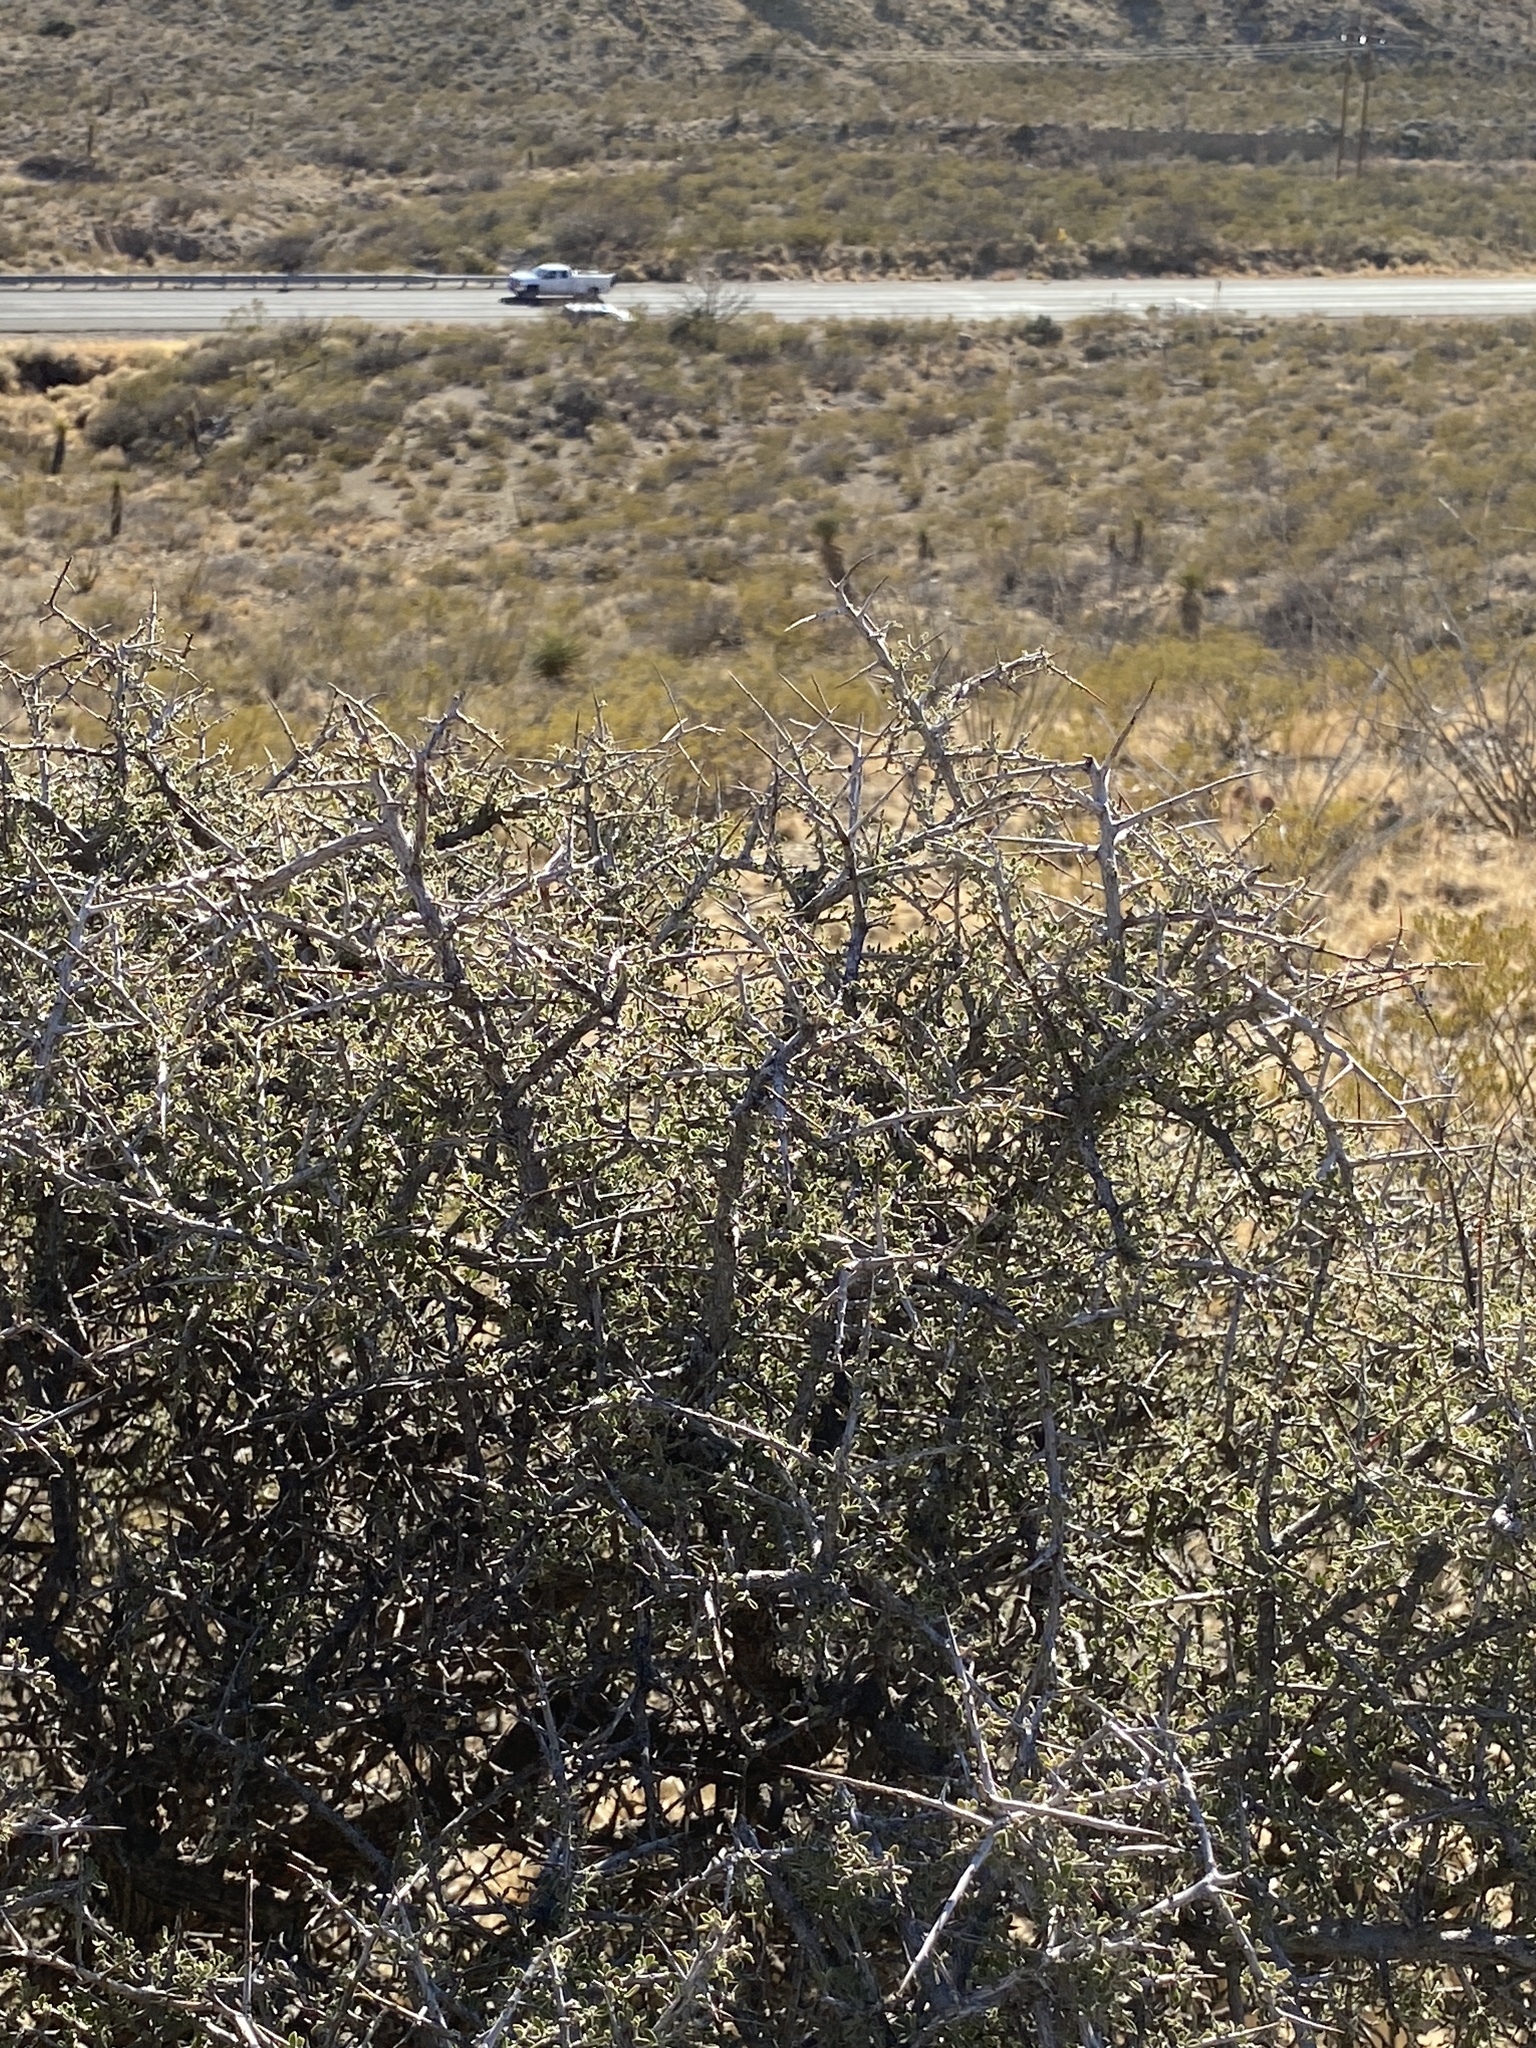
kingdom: Plantae
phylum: Tracheophyta
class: Magnoliopsida
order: Rosales
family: Rhamnaceae
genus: Condalia
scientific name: Condalia warnockii
